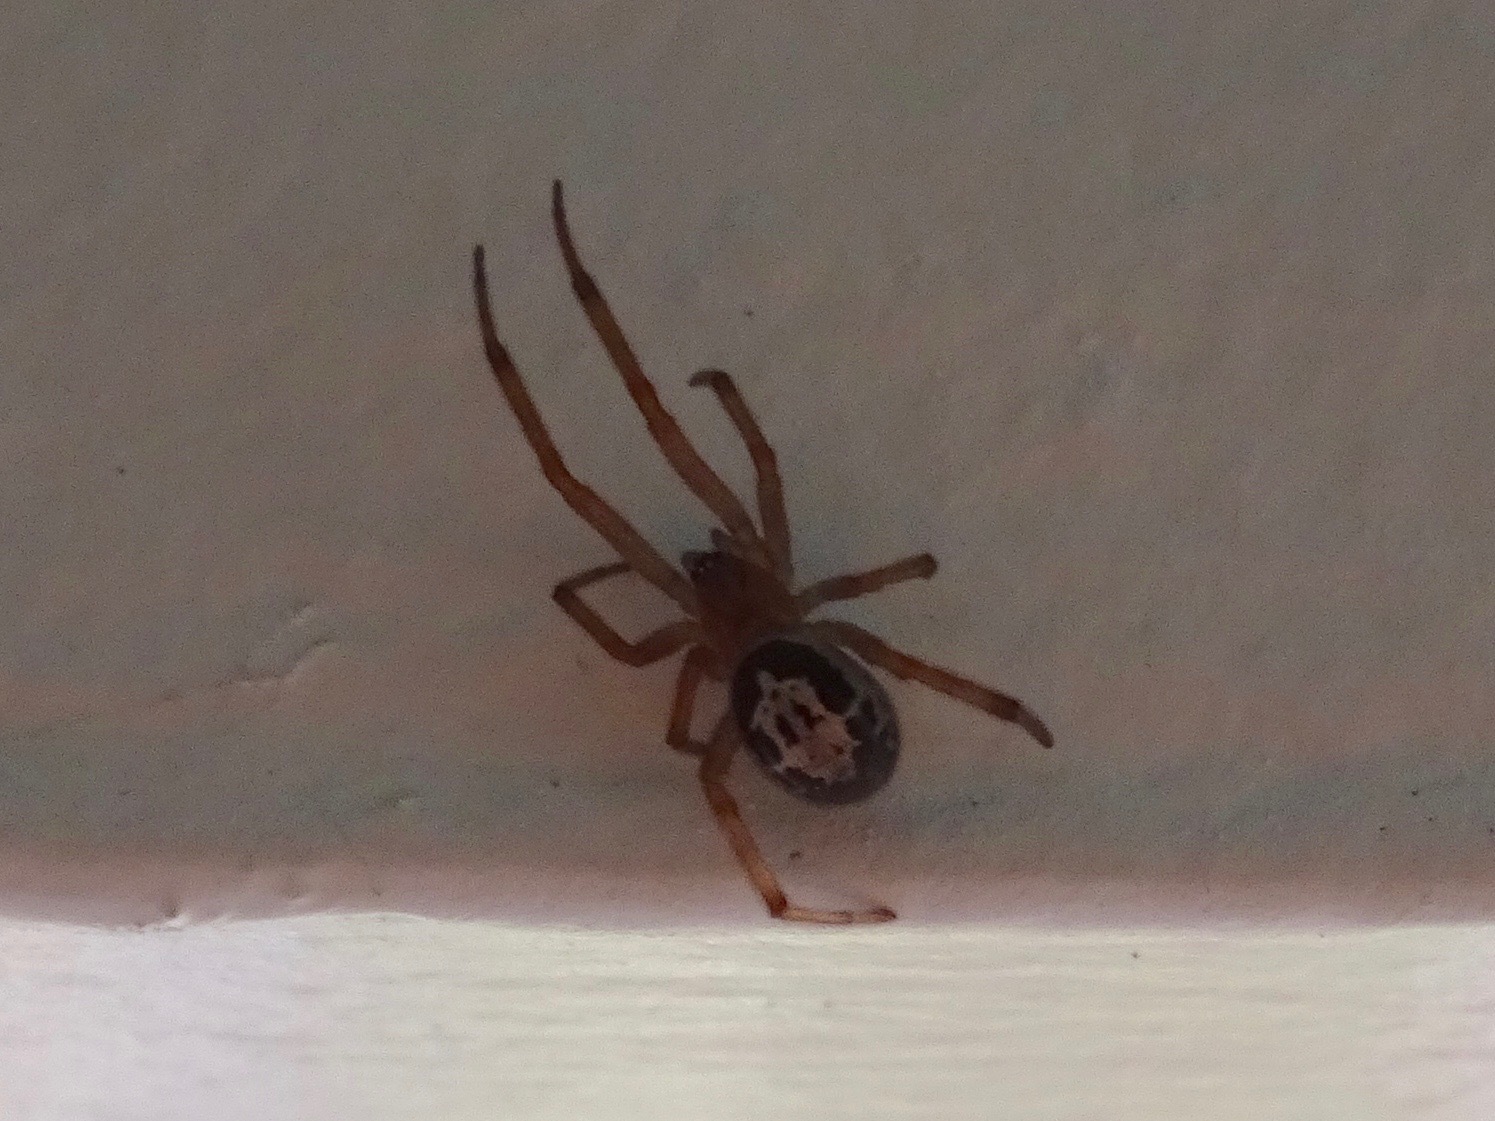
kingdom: Animalia
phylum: Arthropoda
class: Arachnida
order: Araneae
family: Theridiidae
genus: Steatoda
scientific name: Steatoda nobilis
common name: Cobweb weaver
